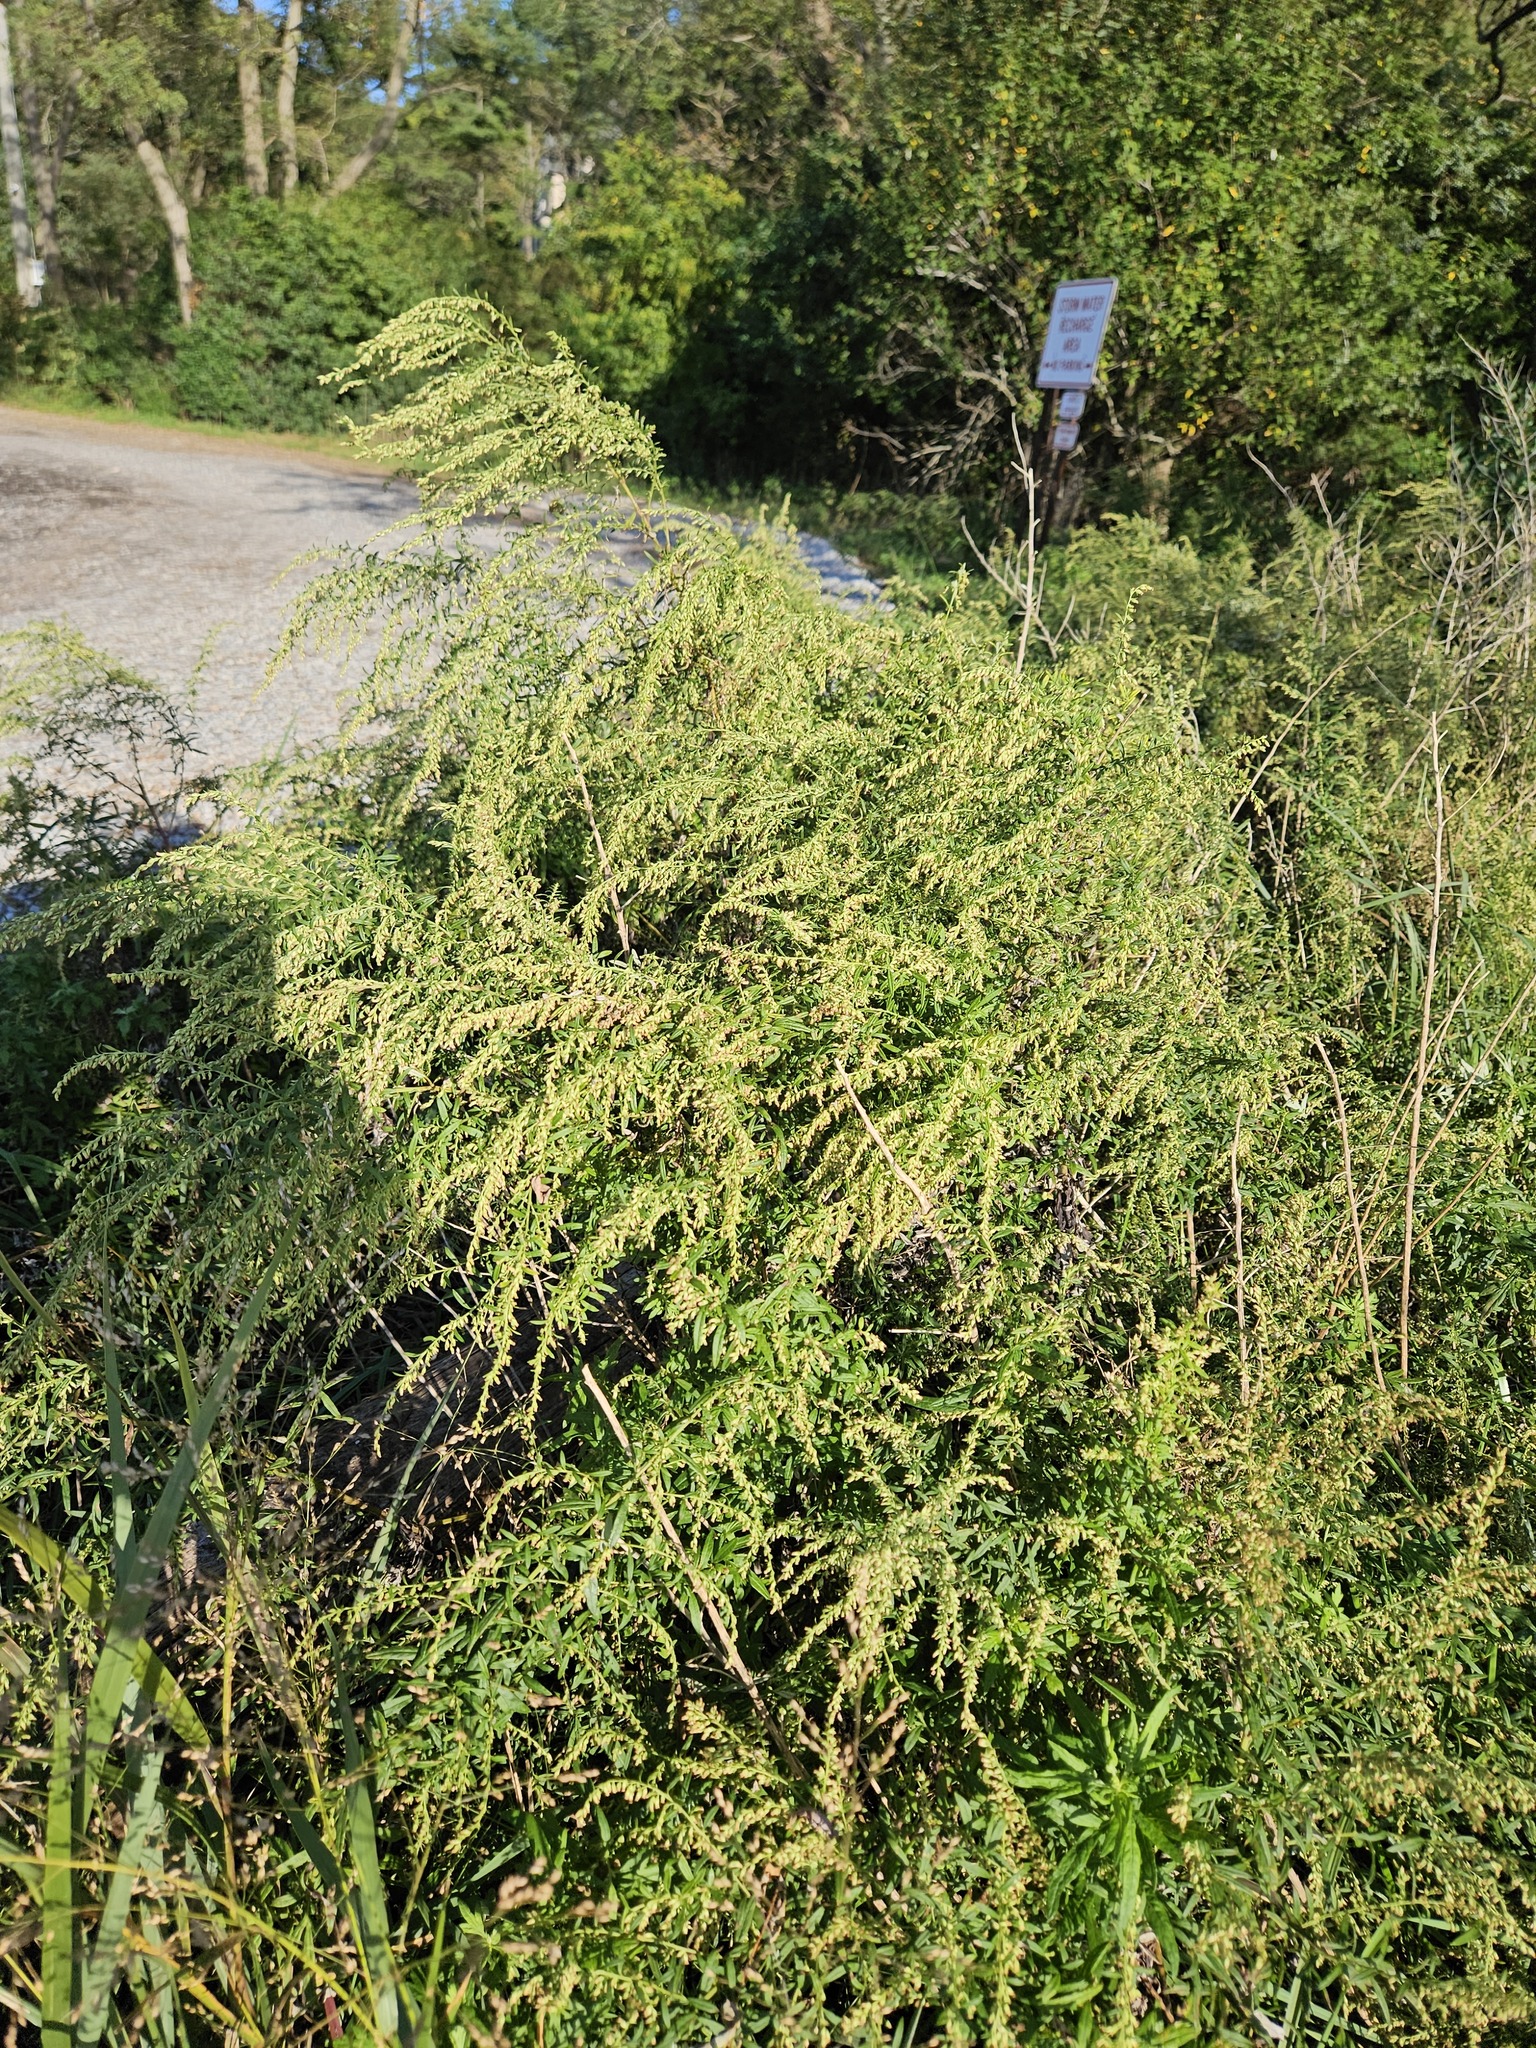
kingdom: Plantae
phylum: Tracheophyta
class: Magnoliopsida
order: Asterales
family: Asteraceae
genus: Artemisia
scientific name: Artemisia vulgaris
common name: Mugwort
